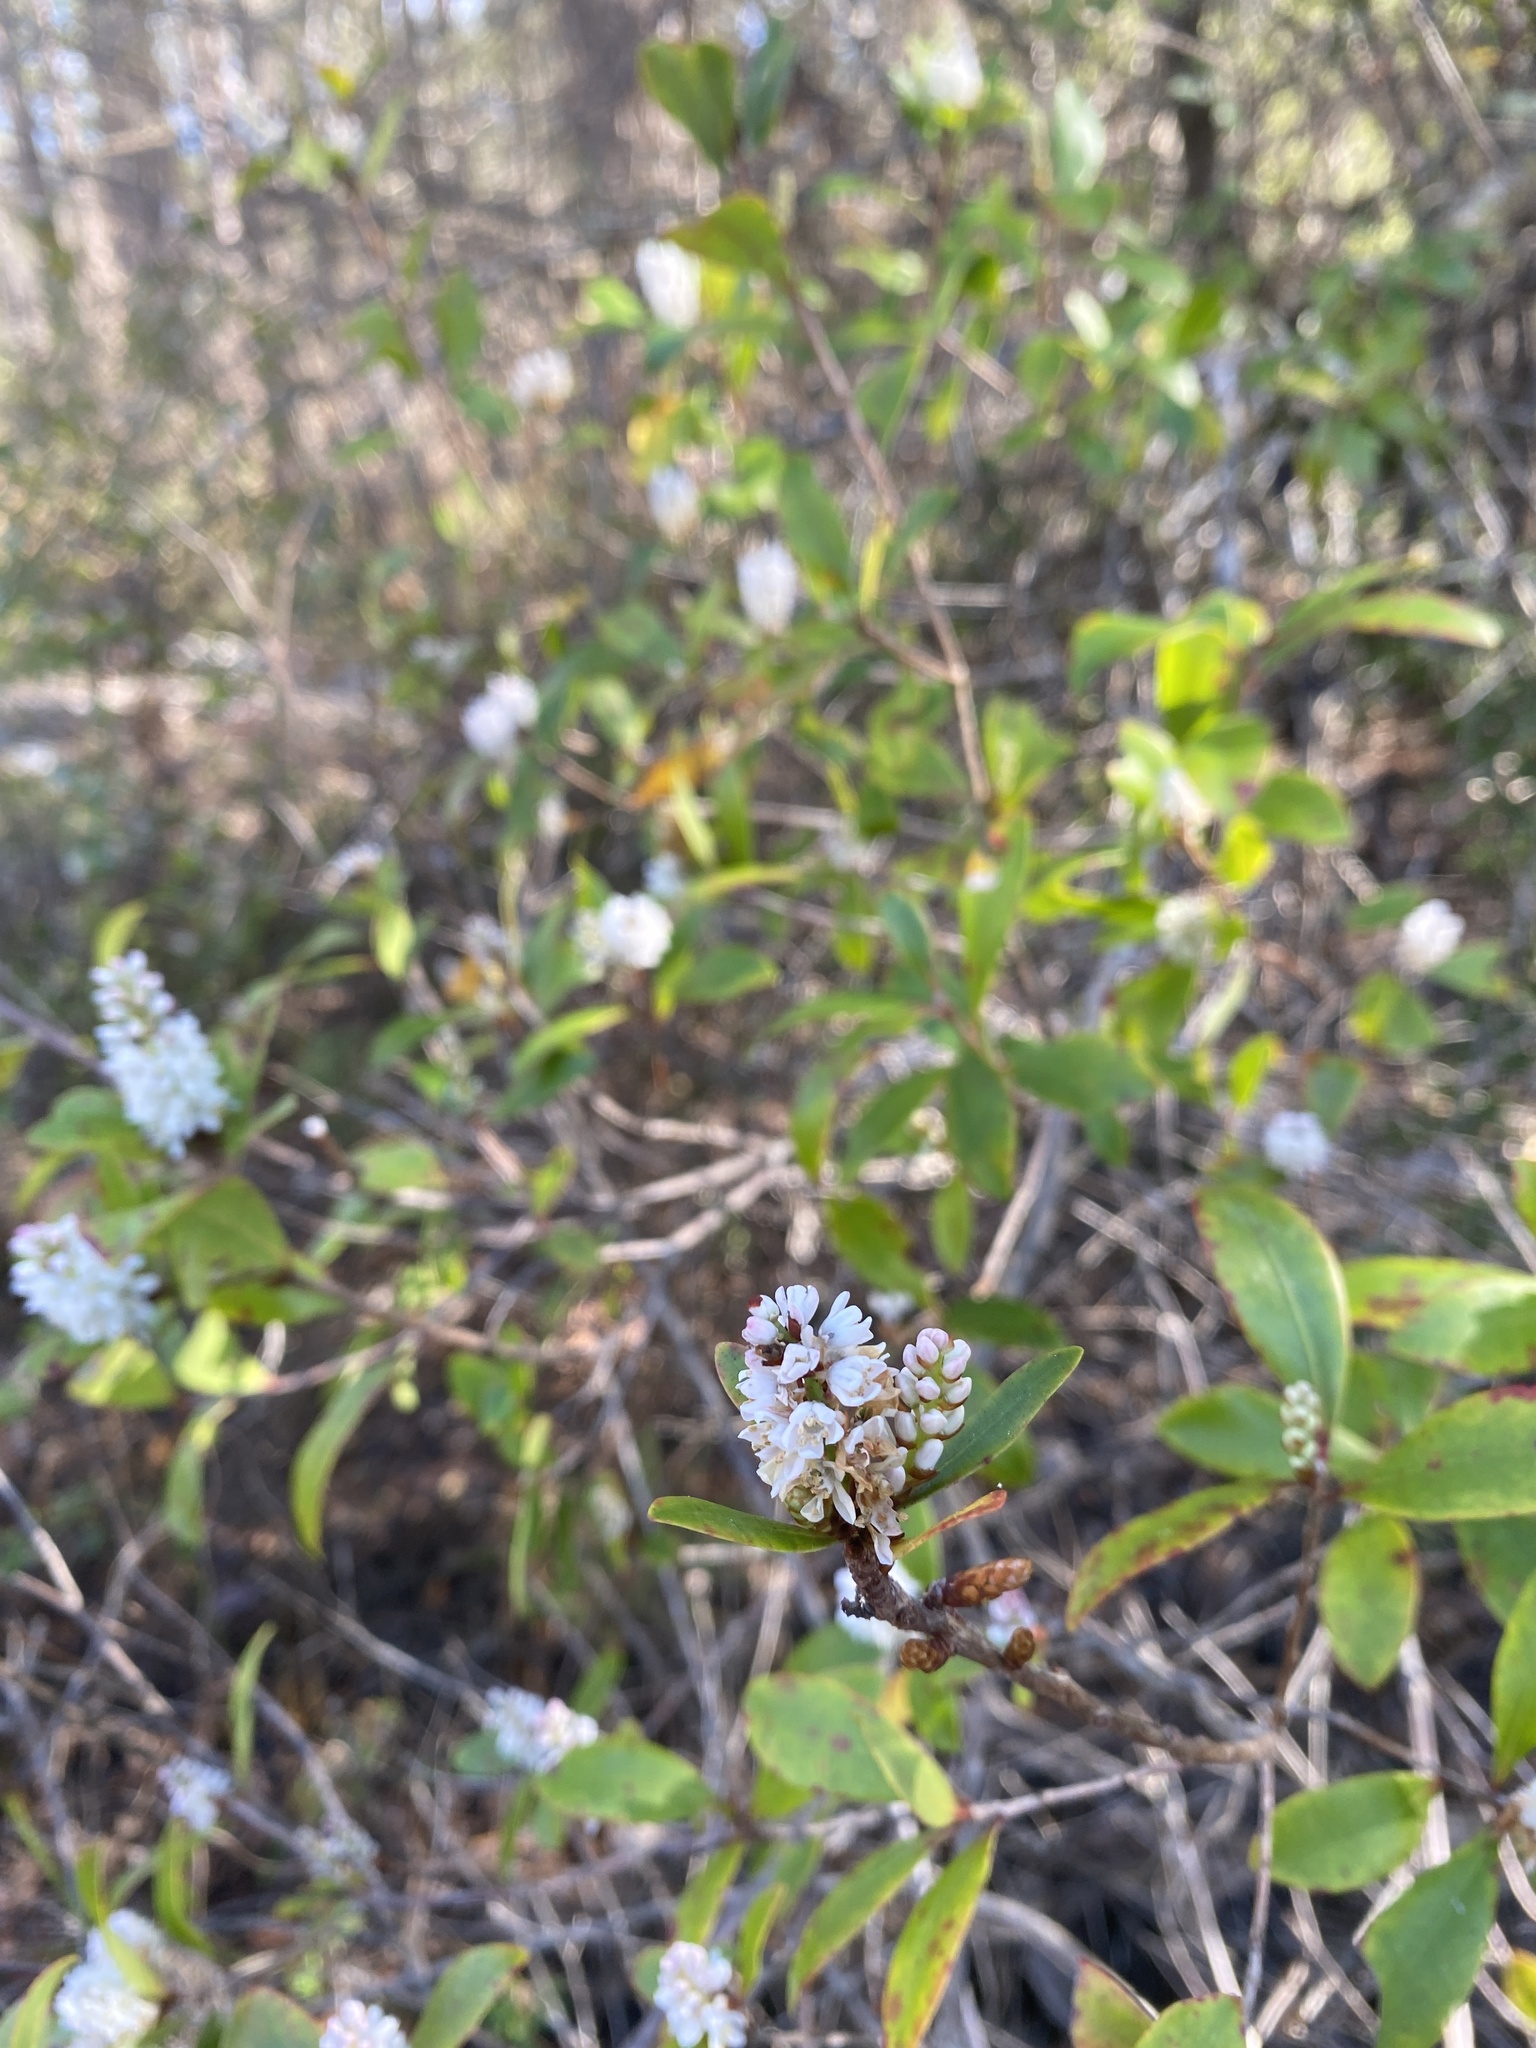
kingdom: Plantae
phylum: Tracheophyta
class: Magnoliopsida
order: Ericales
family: Cyrillaceae
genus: Cliftonia
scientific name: Cliftonia monophylla
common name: Titi
